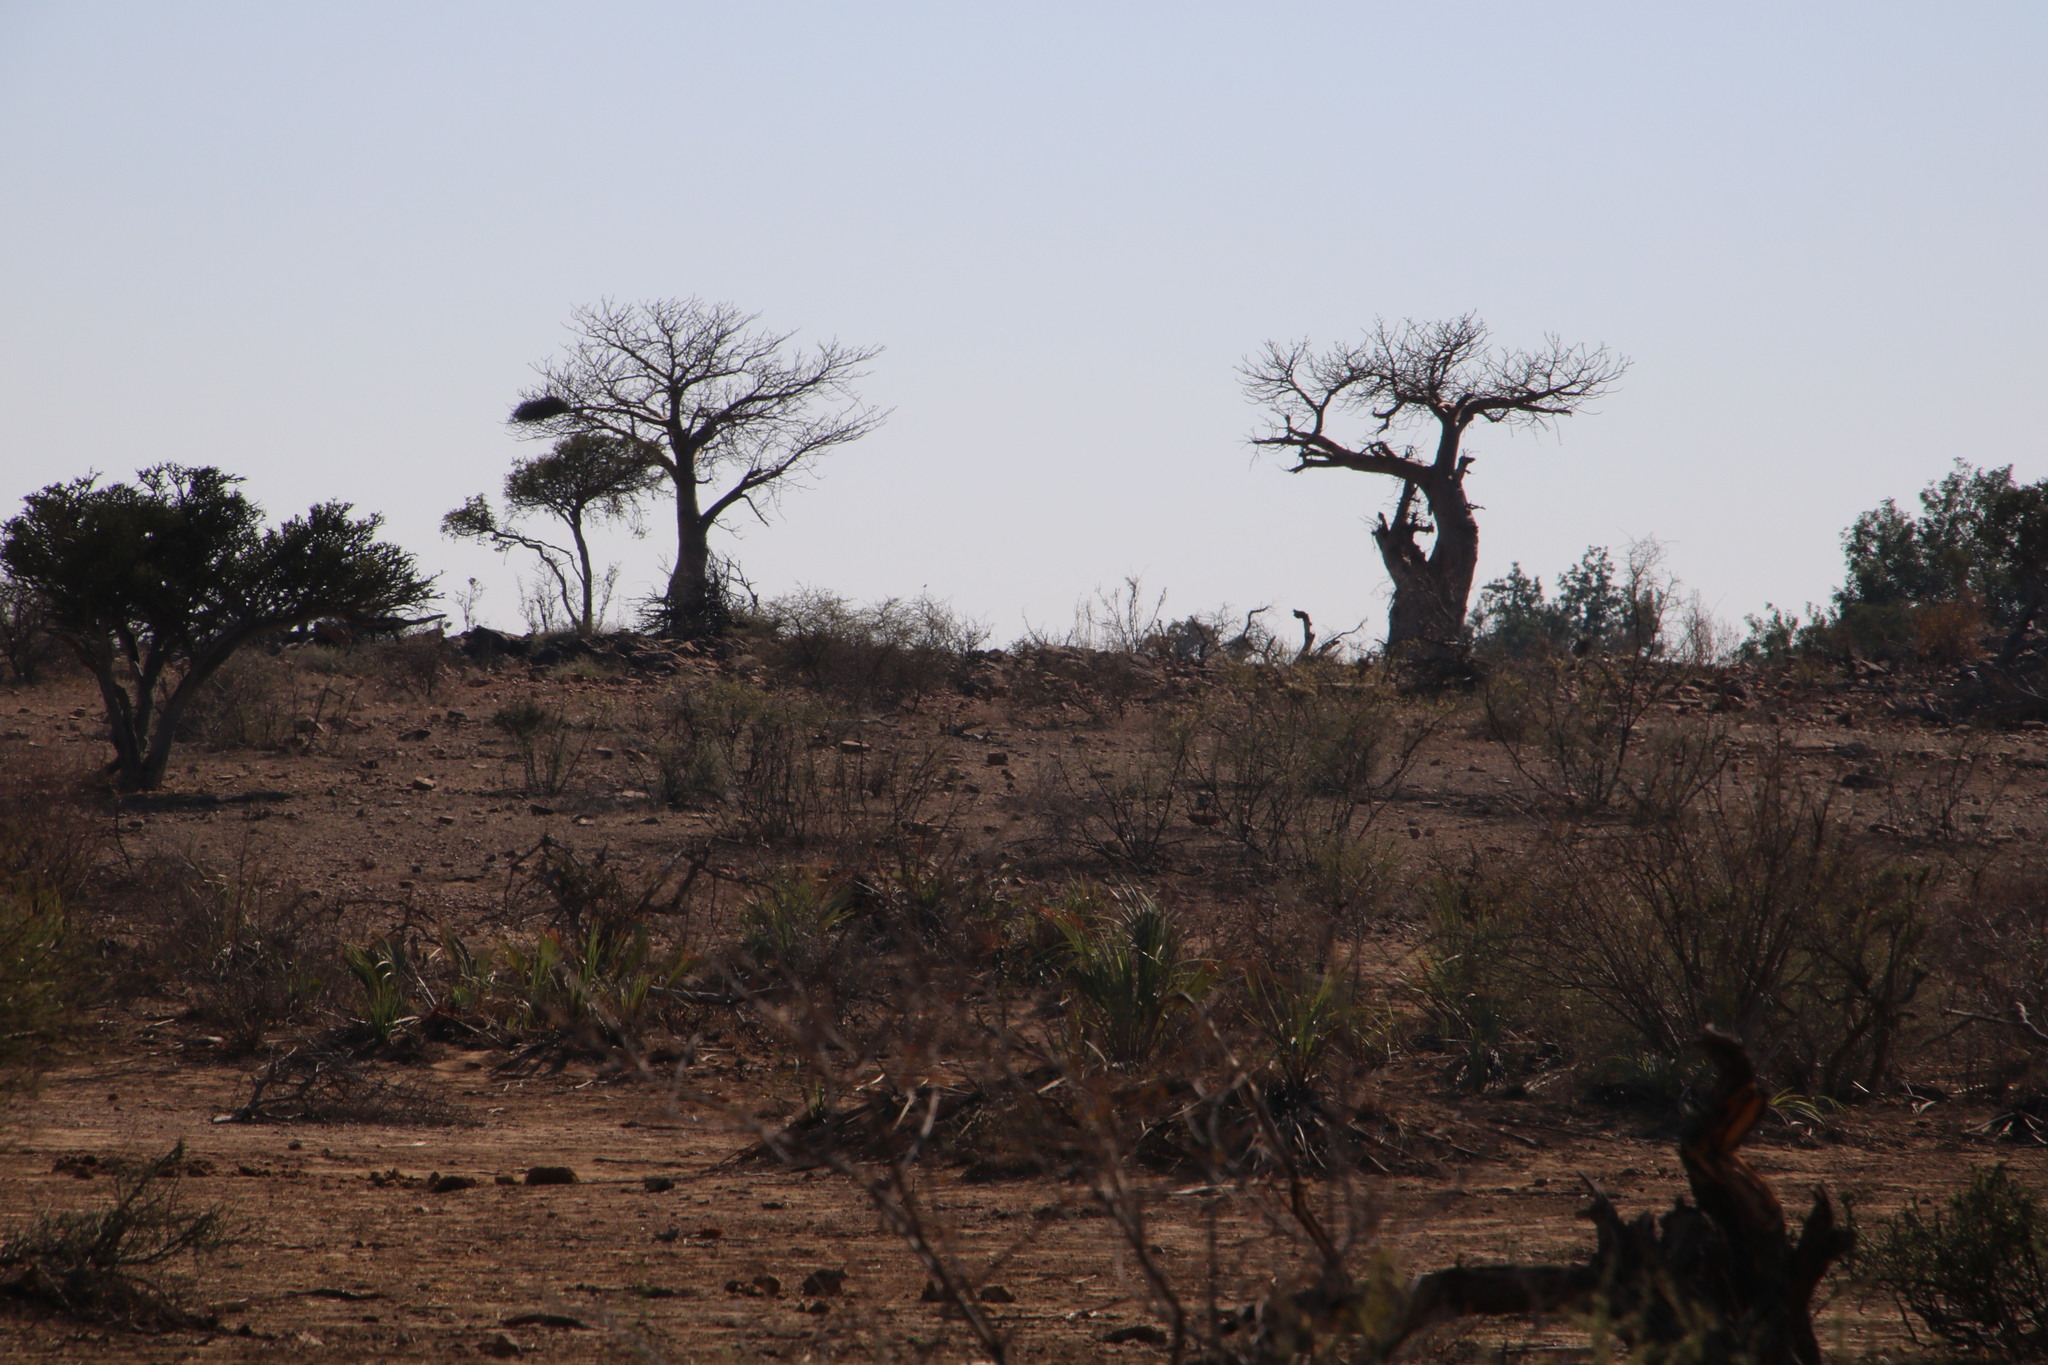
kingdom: Plantae
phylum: Tracheophyta
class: Magnoliopsida
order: Malvales
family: Malvaceae
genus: Adansonia
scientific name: Adansonia digitata
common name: Dead-rat-tree
